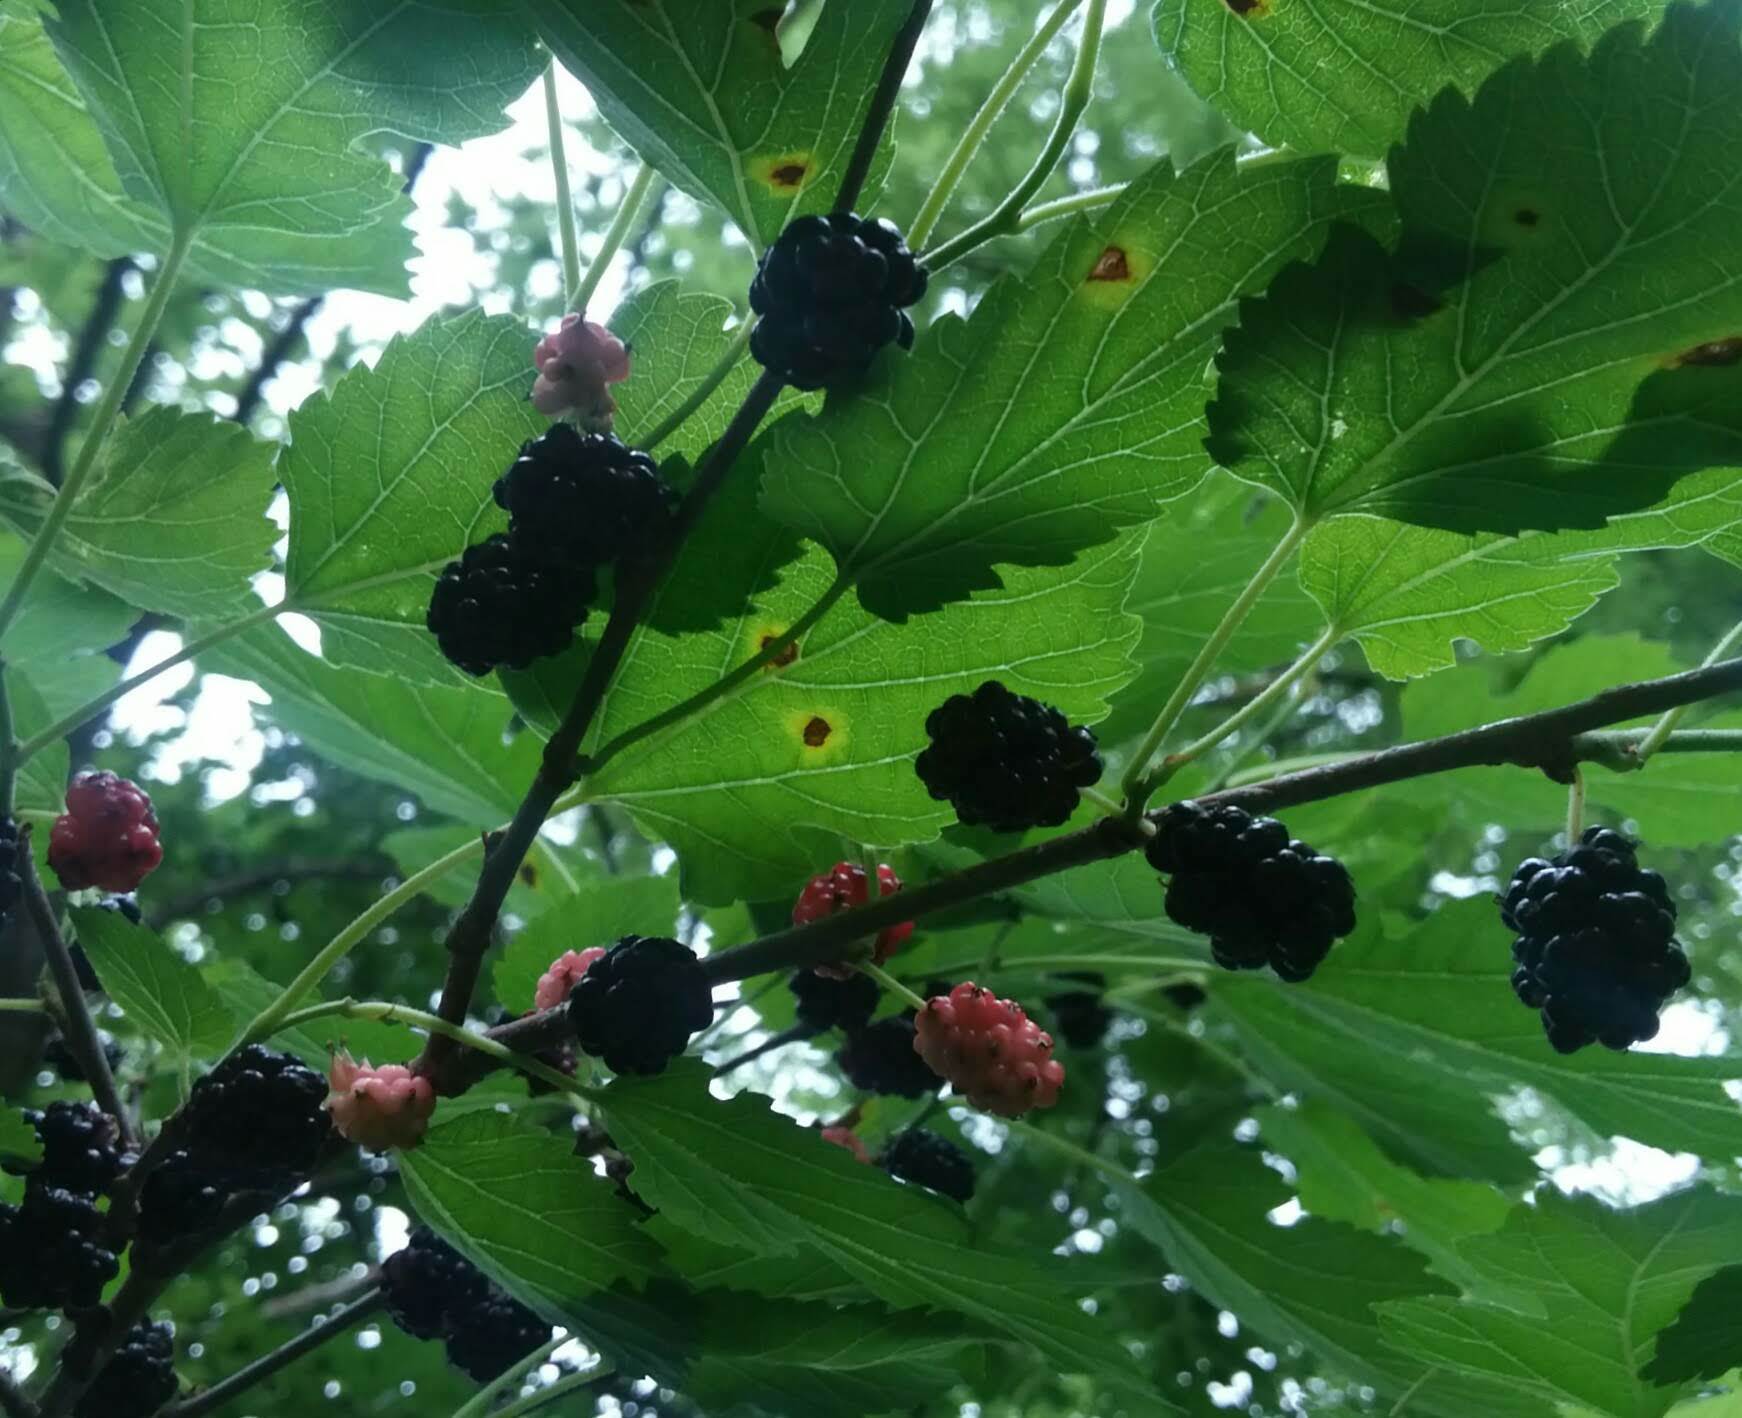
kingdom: Plantae
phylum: Tracheophyta
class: Magnoliopsida
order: Rosales
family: Moraceae
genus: Morus
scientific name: Morus rubra
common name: Red mulberry
